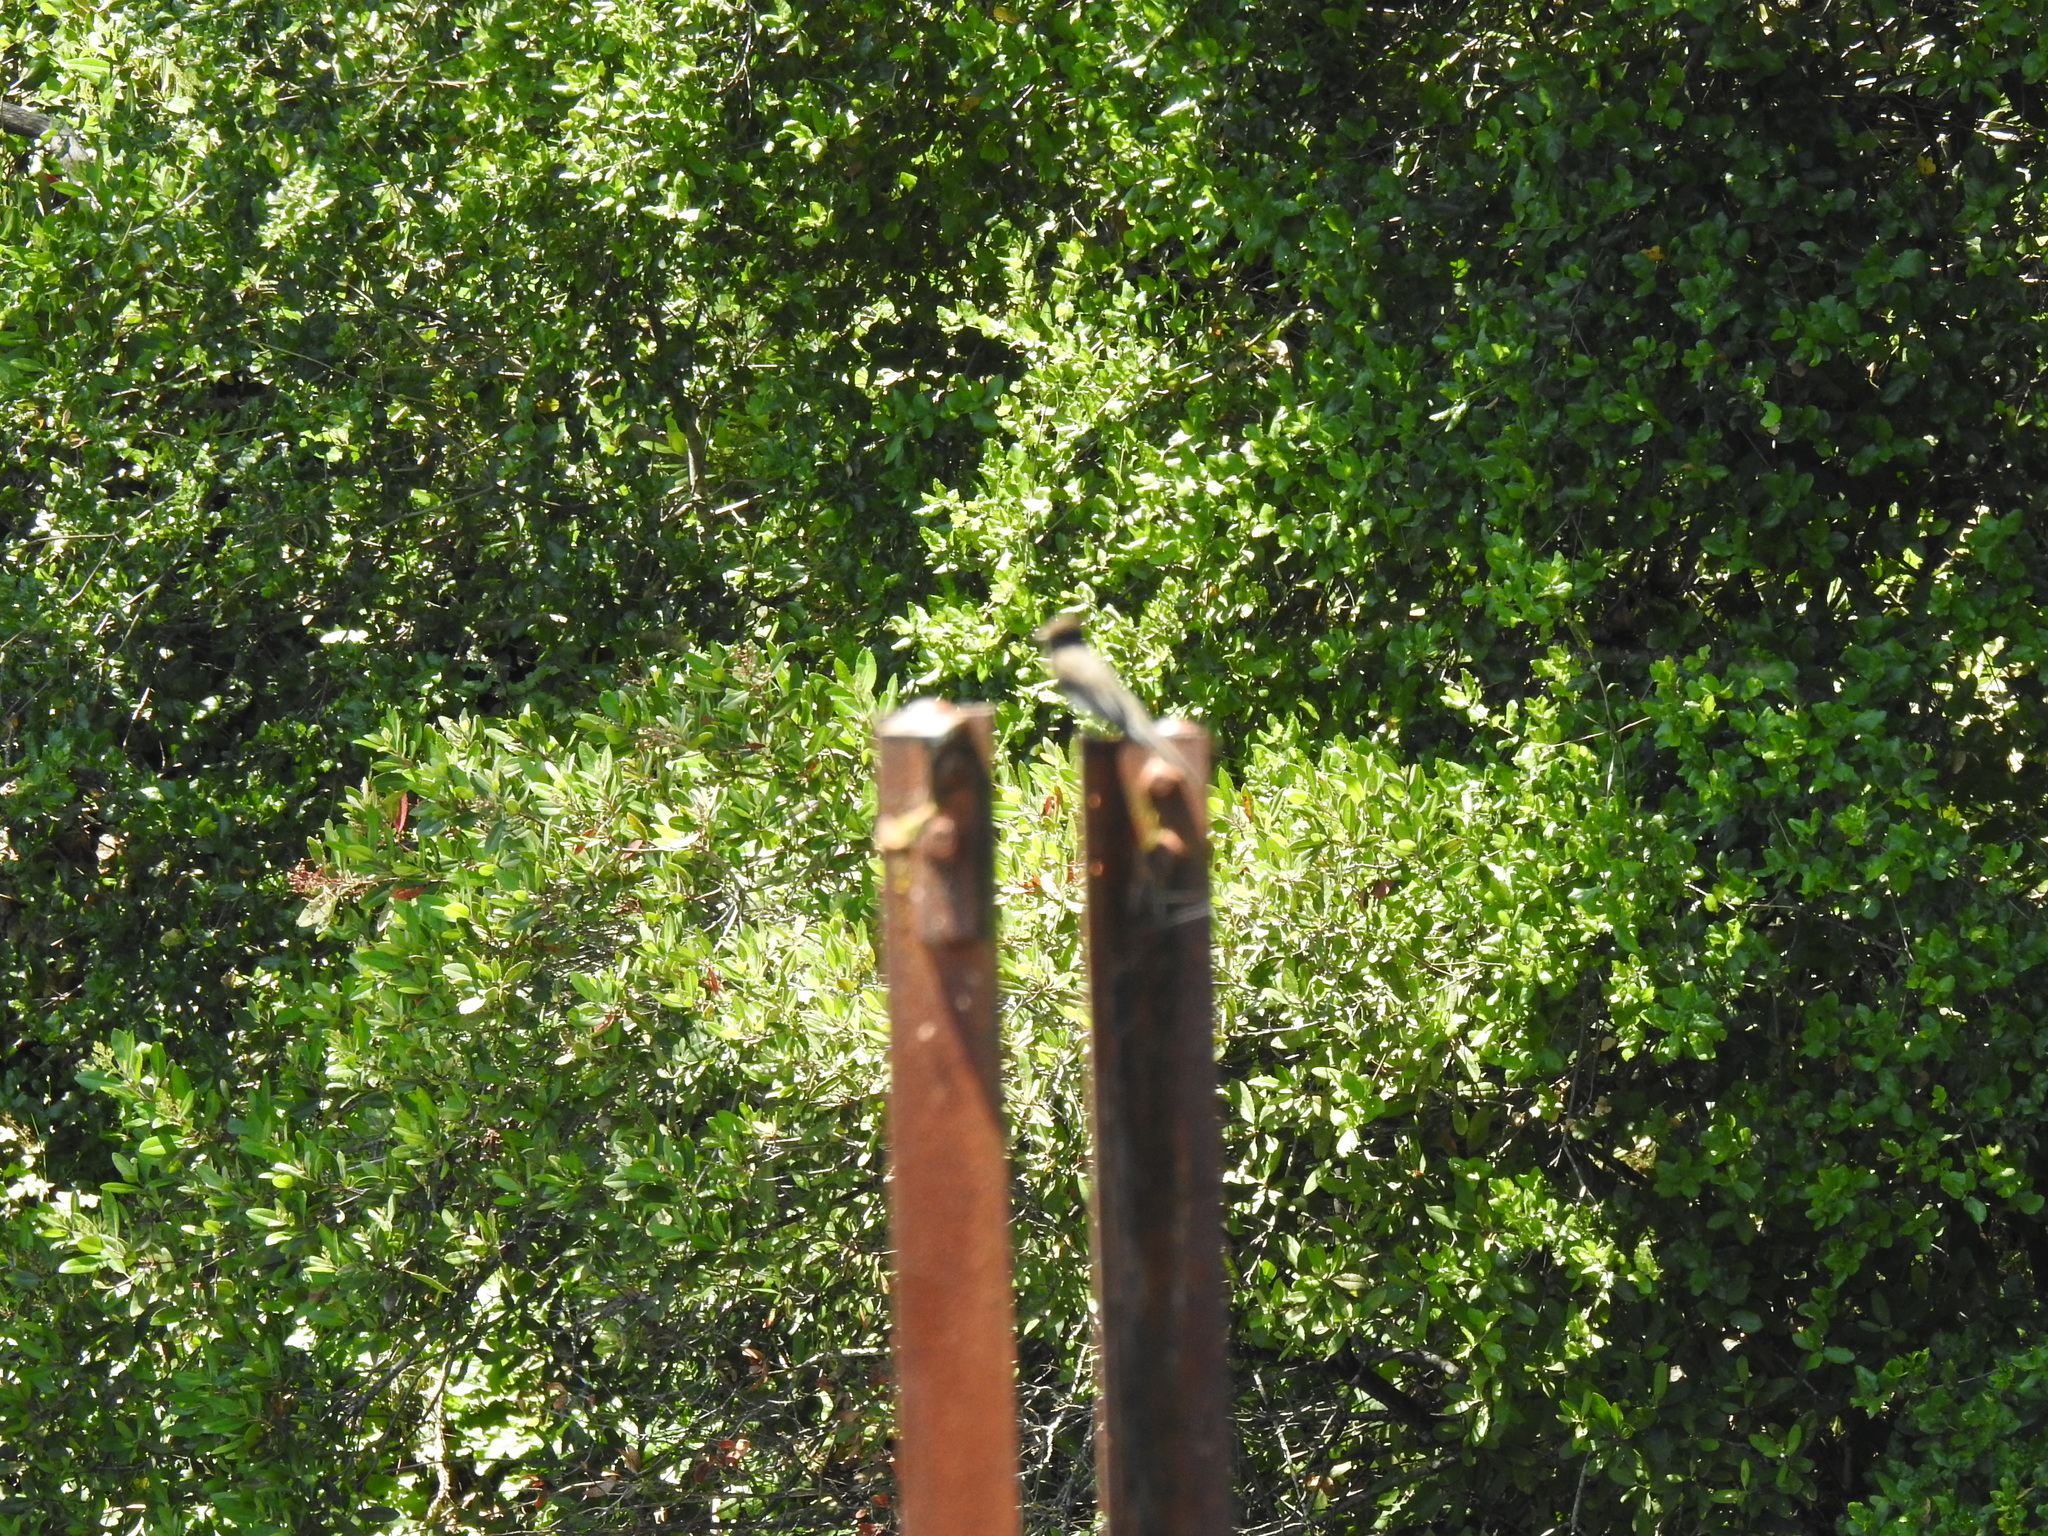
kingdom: Animalia
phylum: Chordata
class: Aves
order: Passeriformes
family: Tyrannidae
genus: Sayornis
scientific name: Sayornis nigricans
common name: Black phoebe
